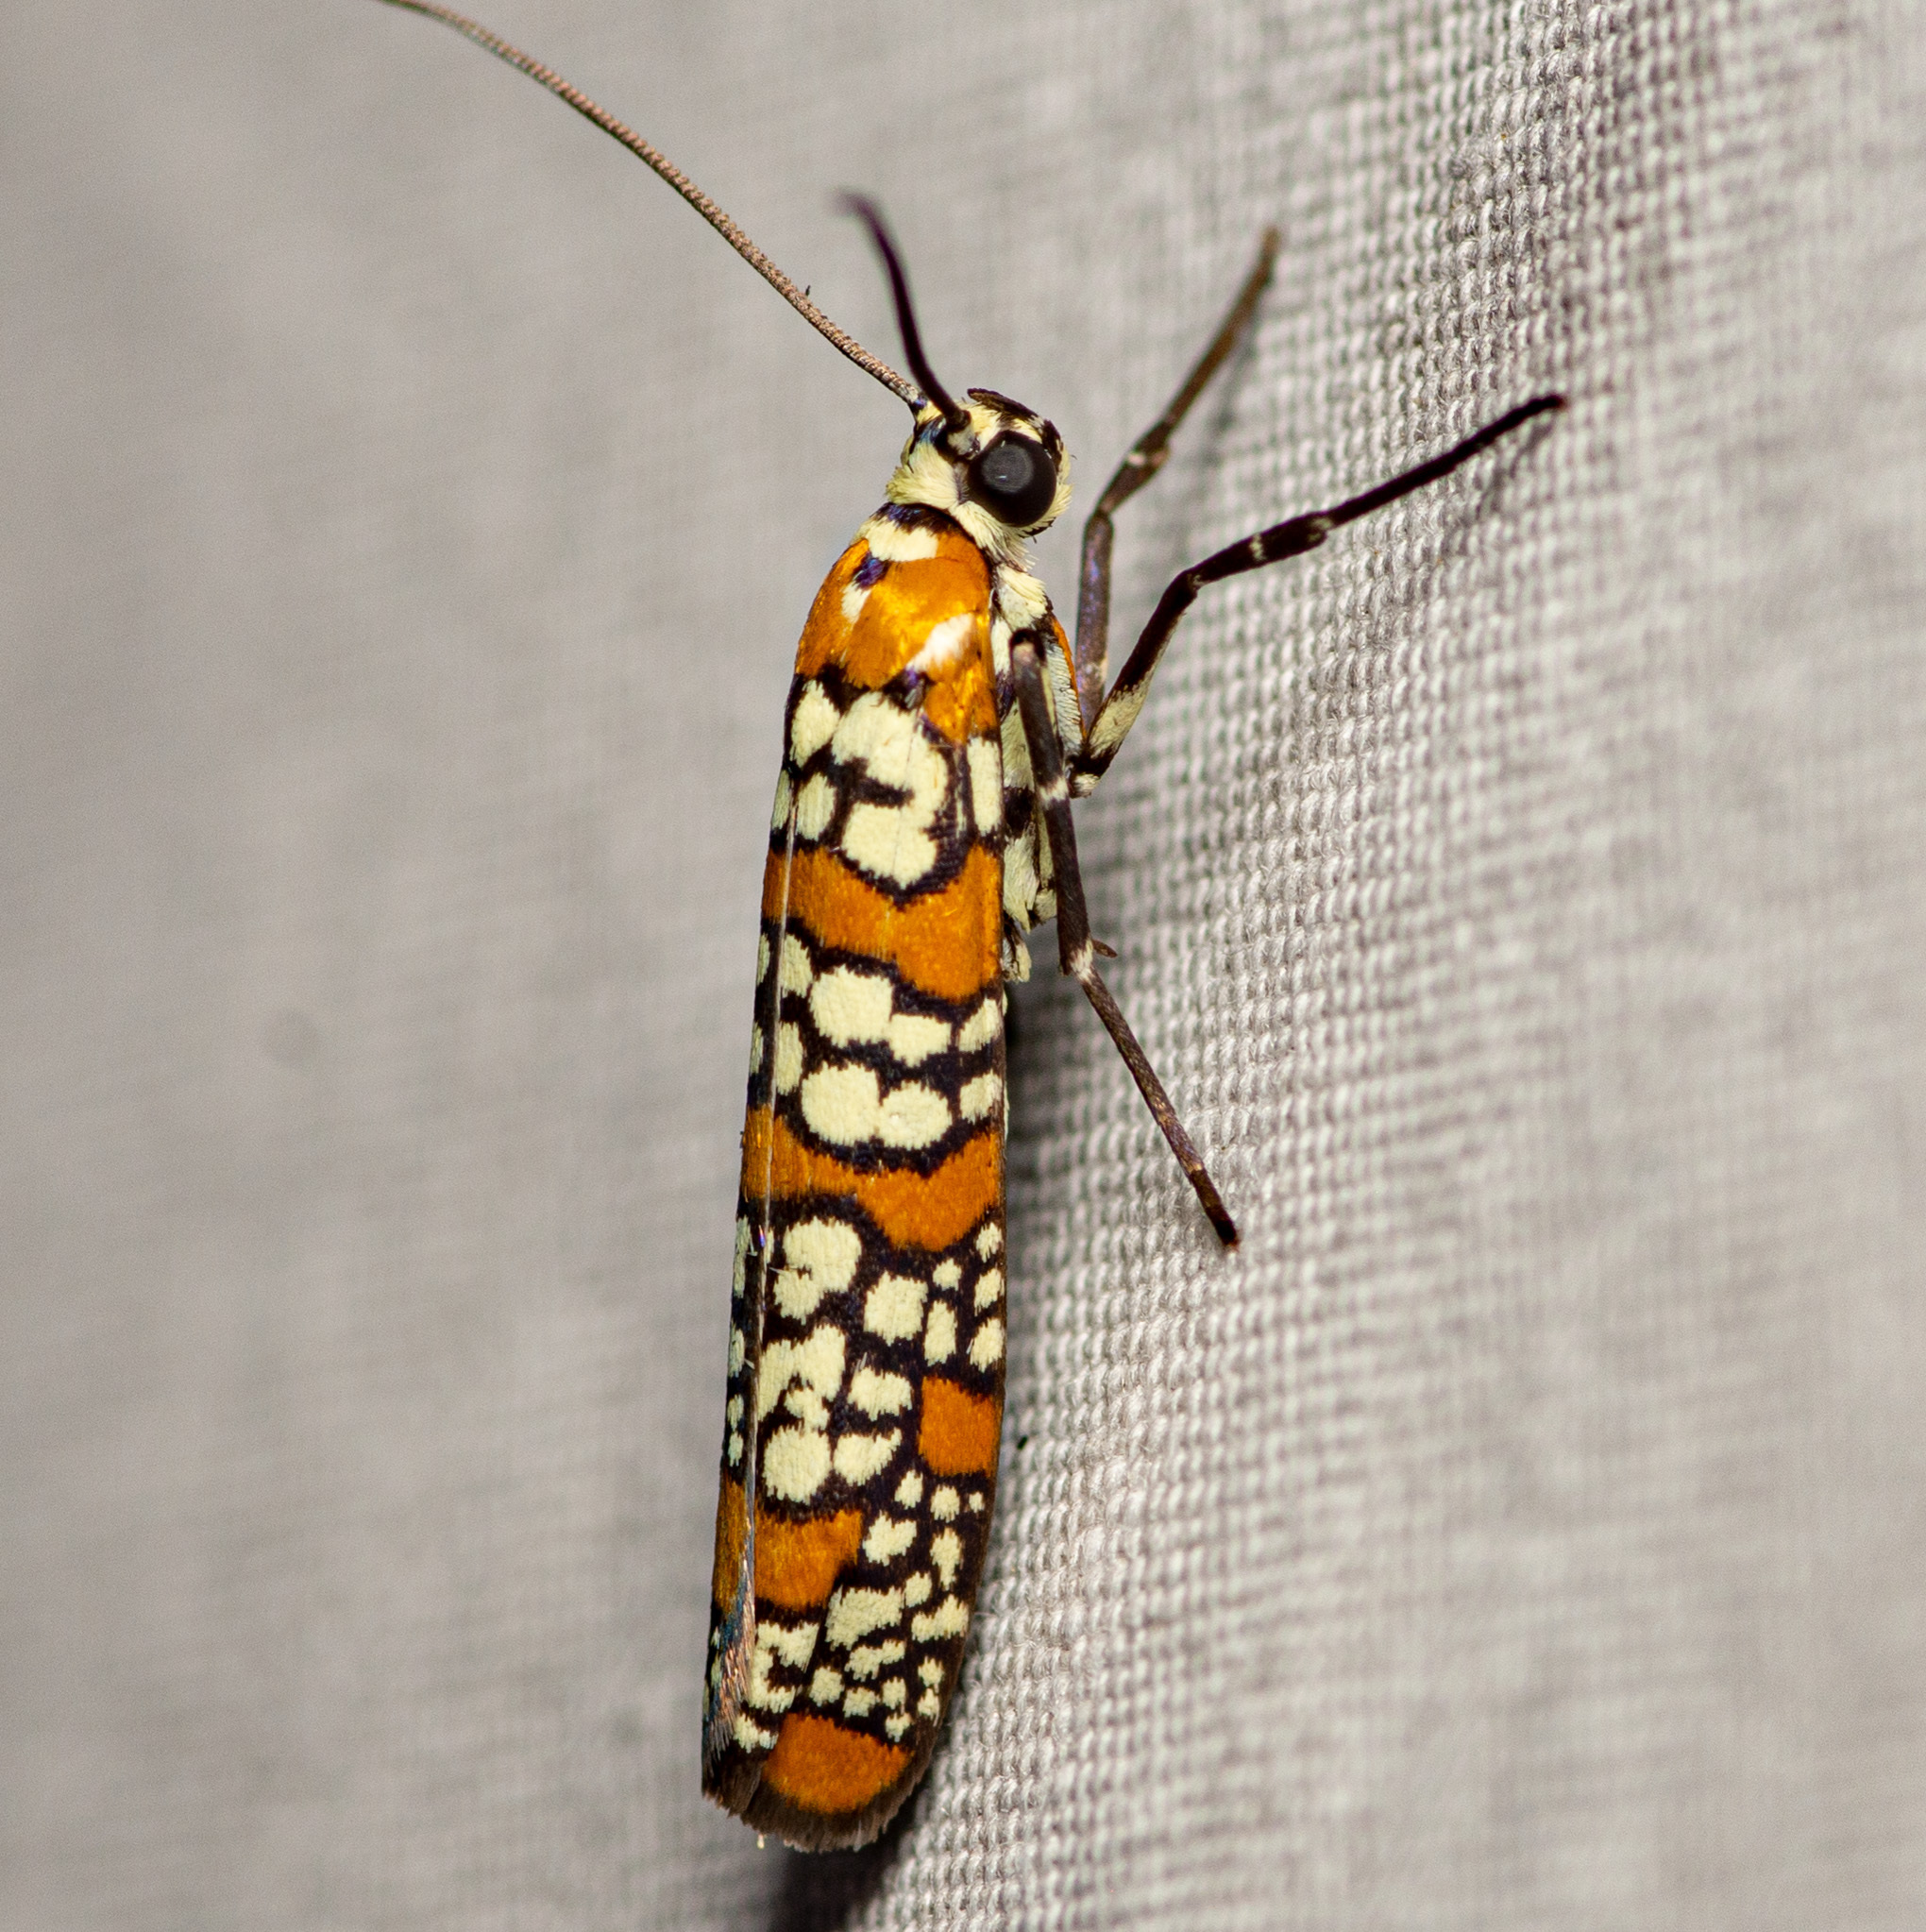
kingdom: Animalia
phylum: Arthropoda
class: Insecta
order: Lepidoptera
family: Attevidae
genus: Atteva
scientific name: Atteva punctella
